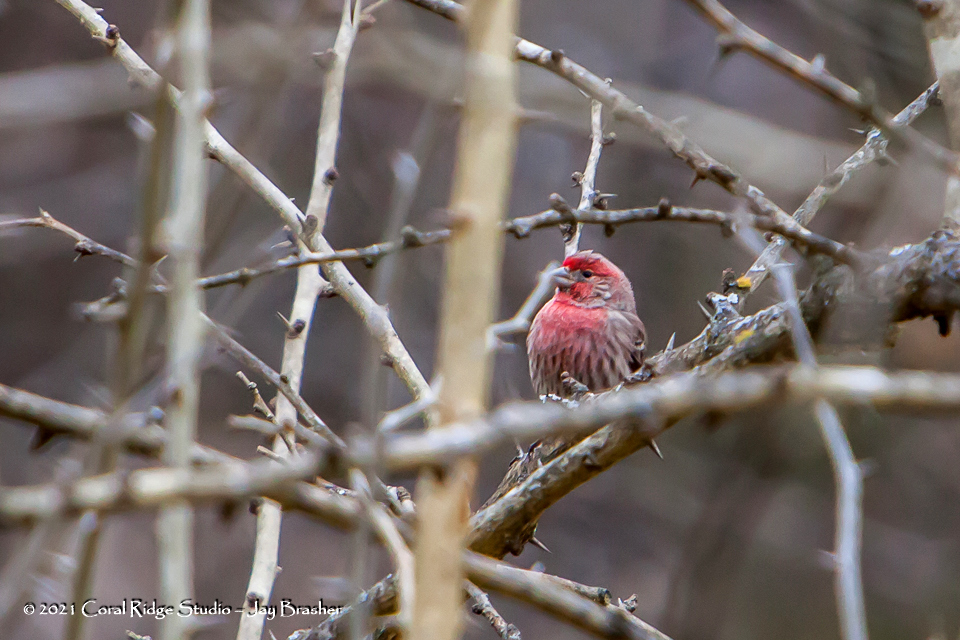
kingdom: Animalia
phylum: Chordata
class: Aves
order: Passeriformes
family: Fringillidae
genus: Haemorhous
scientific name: Haemorhous mexicanus
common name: House finch
